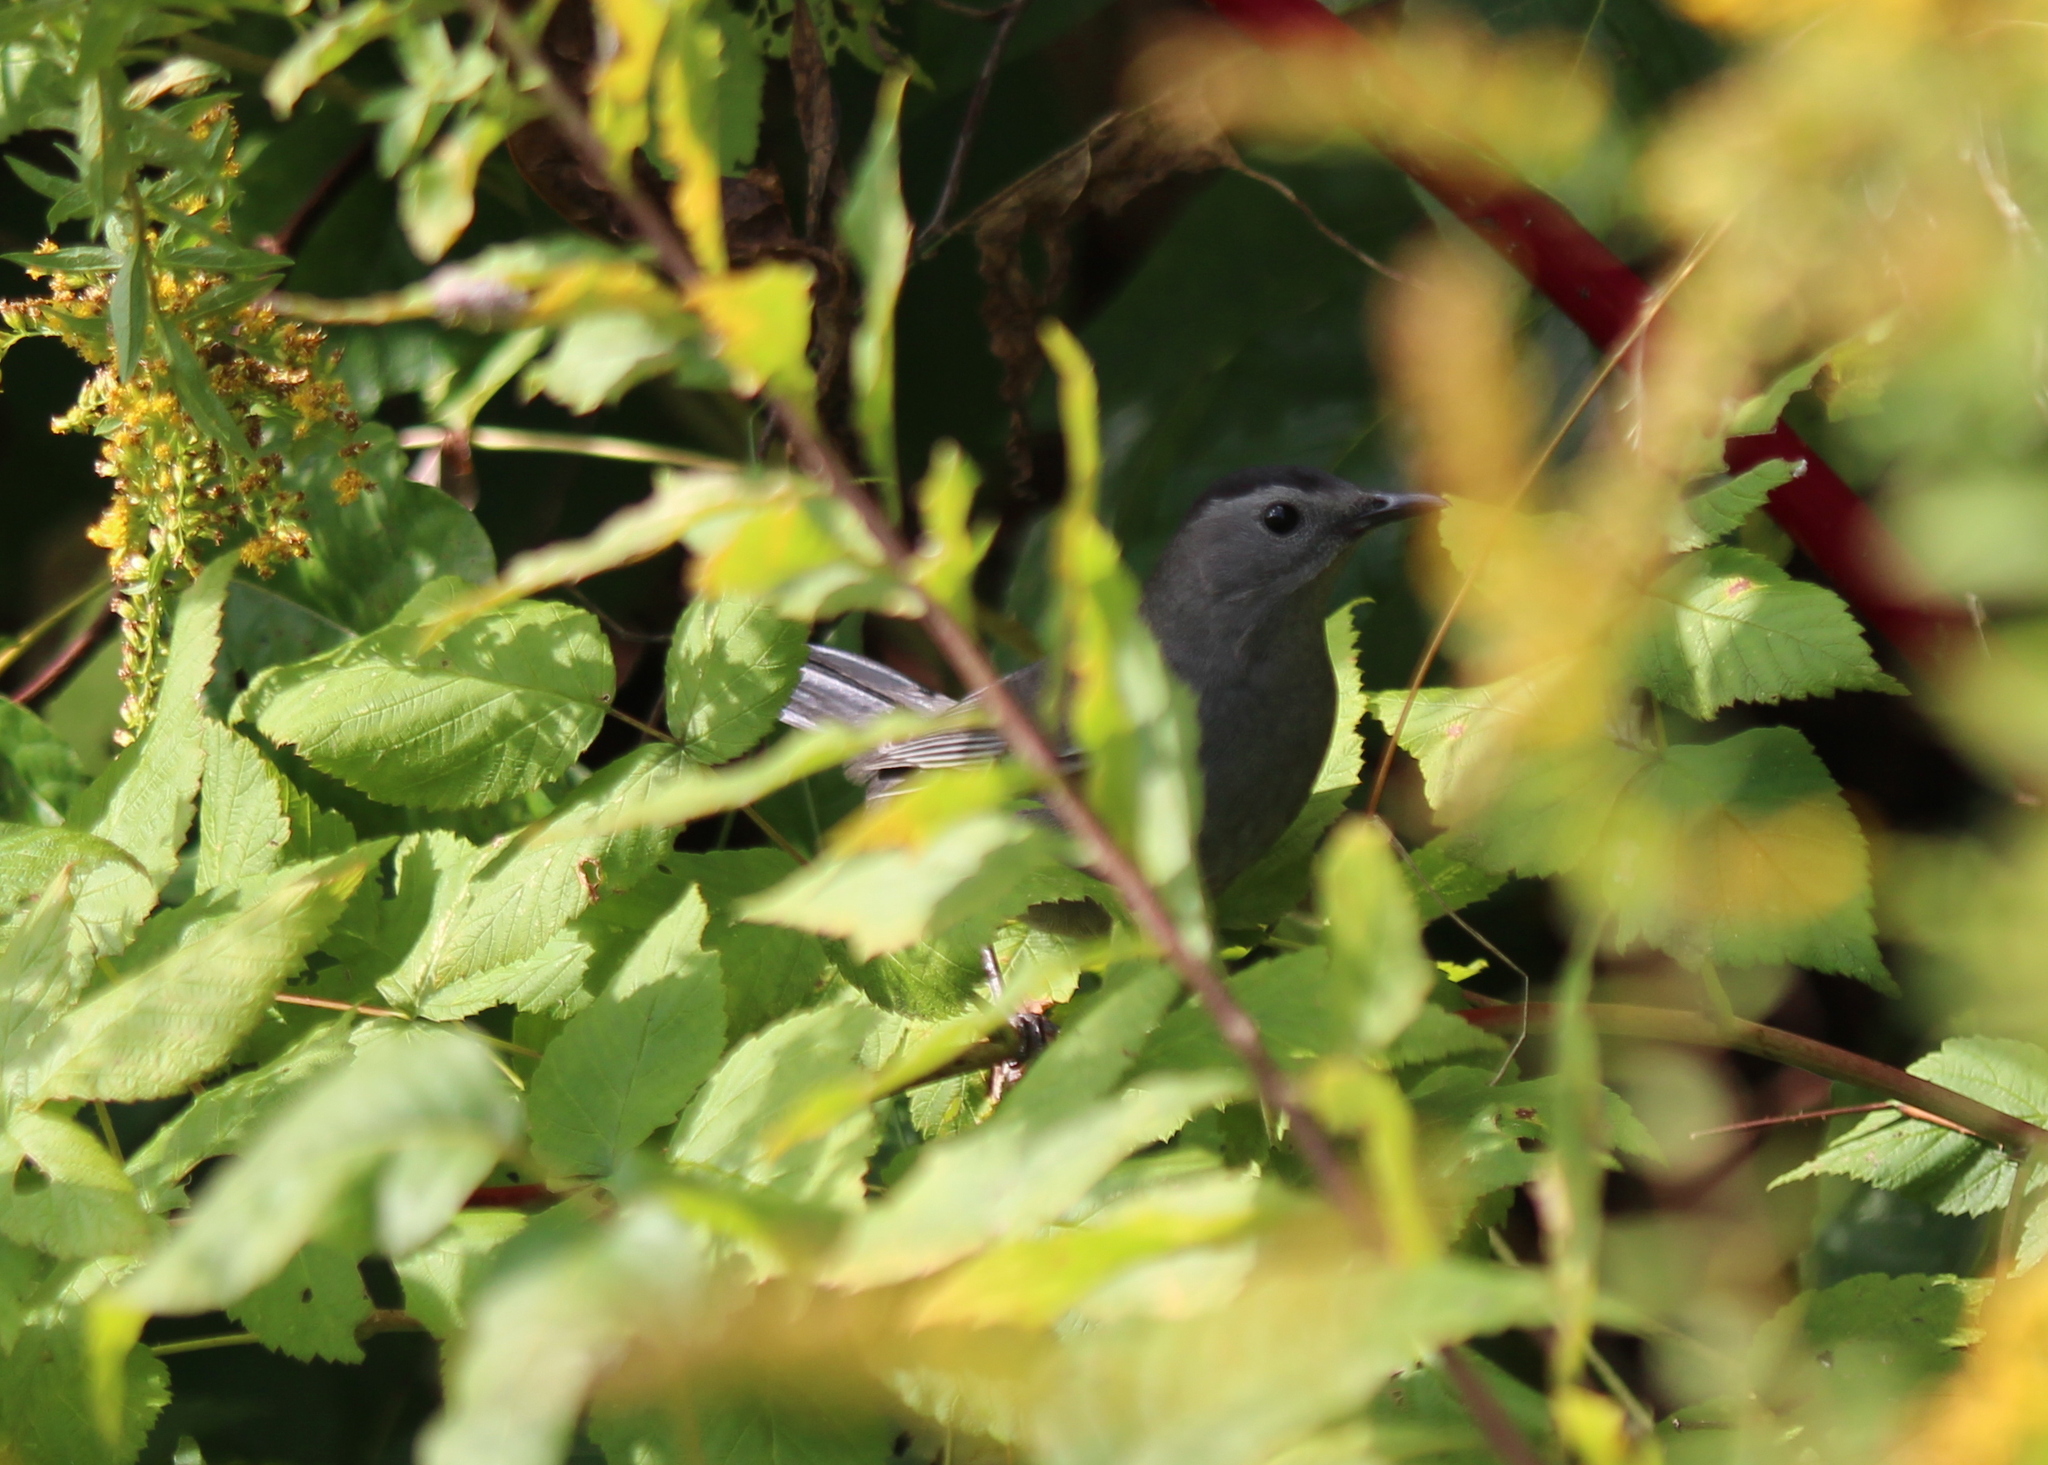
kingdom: Animalia
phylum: Chordata
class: Aves
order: Passeriformes
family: Mimidae
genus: Dumetella
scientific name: Dumetella carolinensis
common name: Gray catbird
